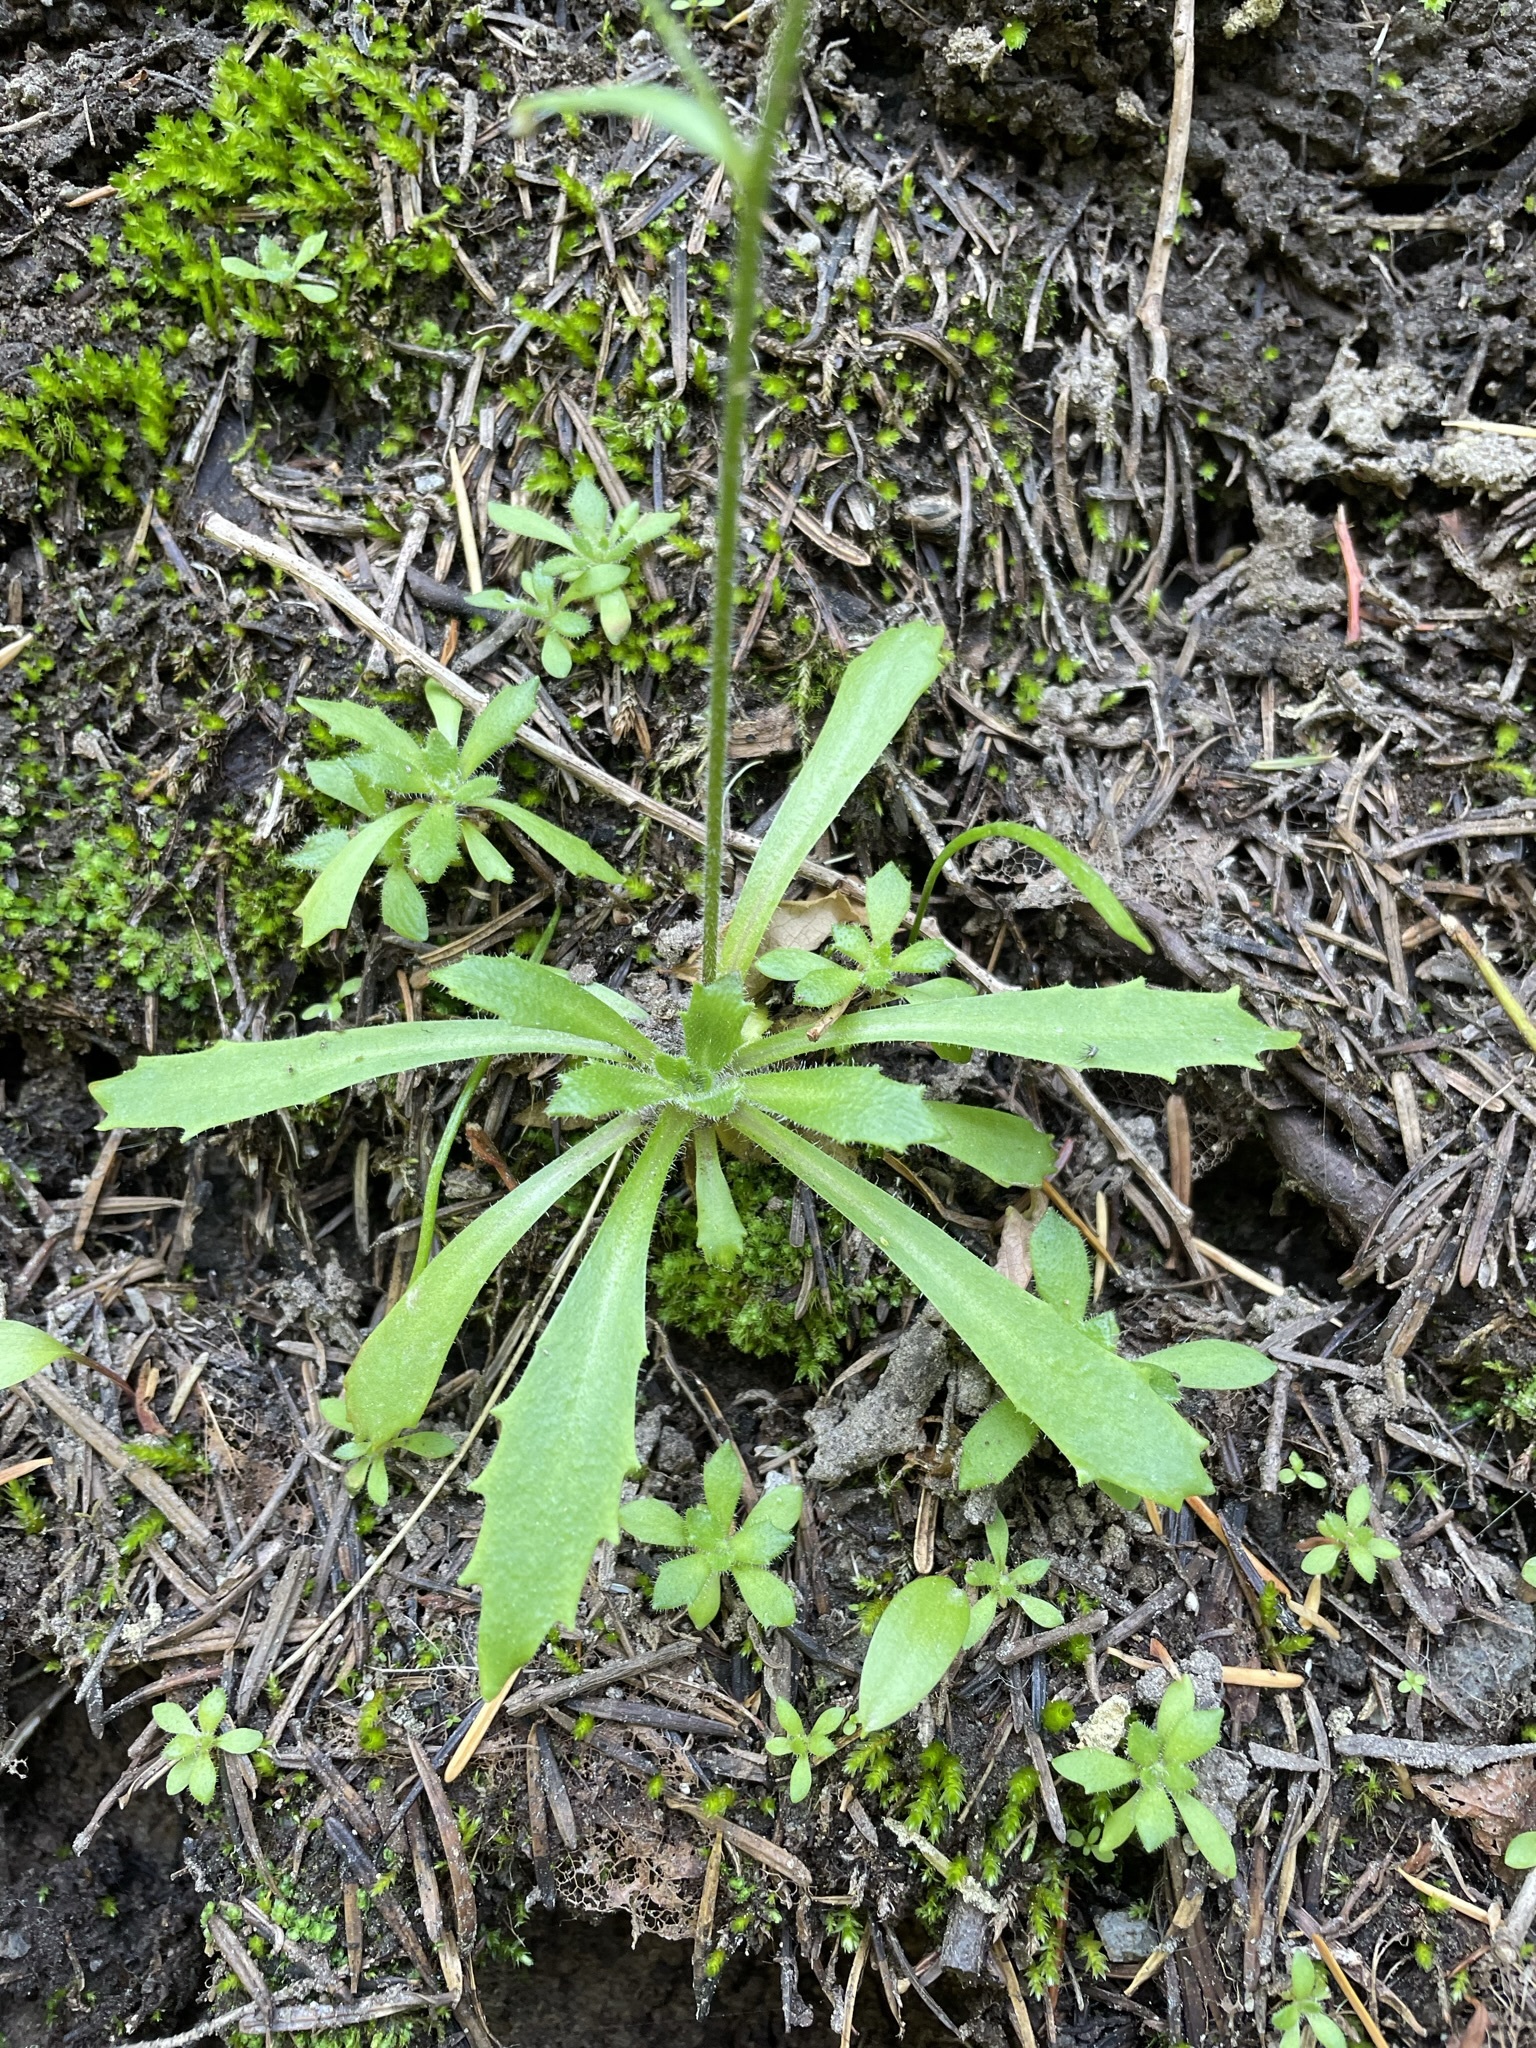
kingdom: Plantae
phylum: Tracheophyta
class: Magnoliopsida
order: Saxifragales
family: Saxifragaceae
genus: Micranthes
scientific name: Micranthes ferruginea
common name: Rusty saxifrage
